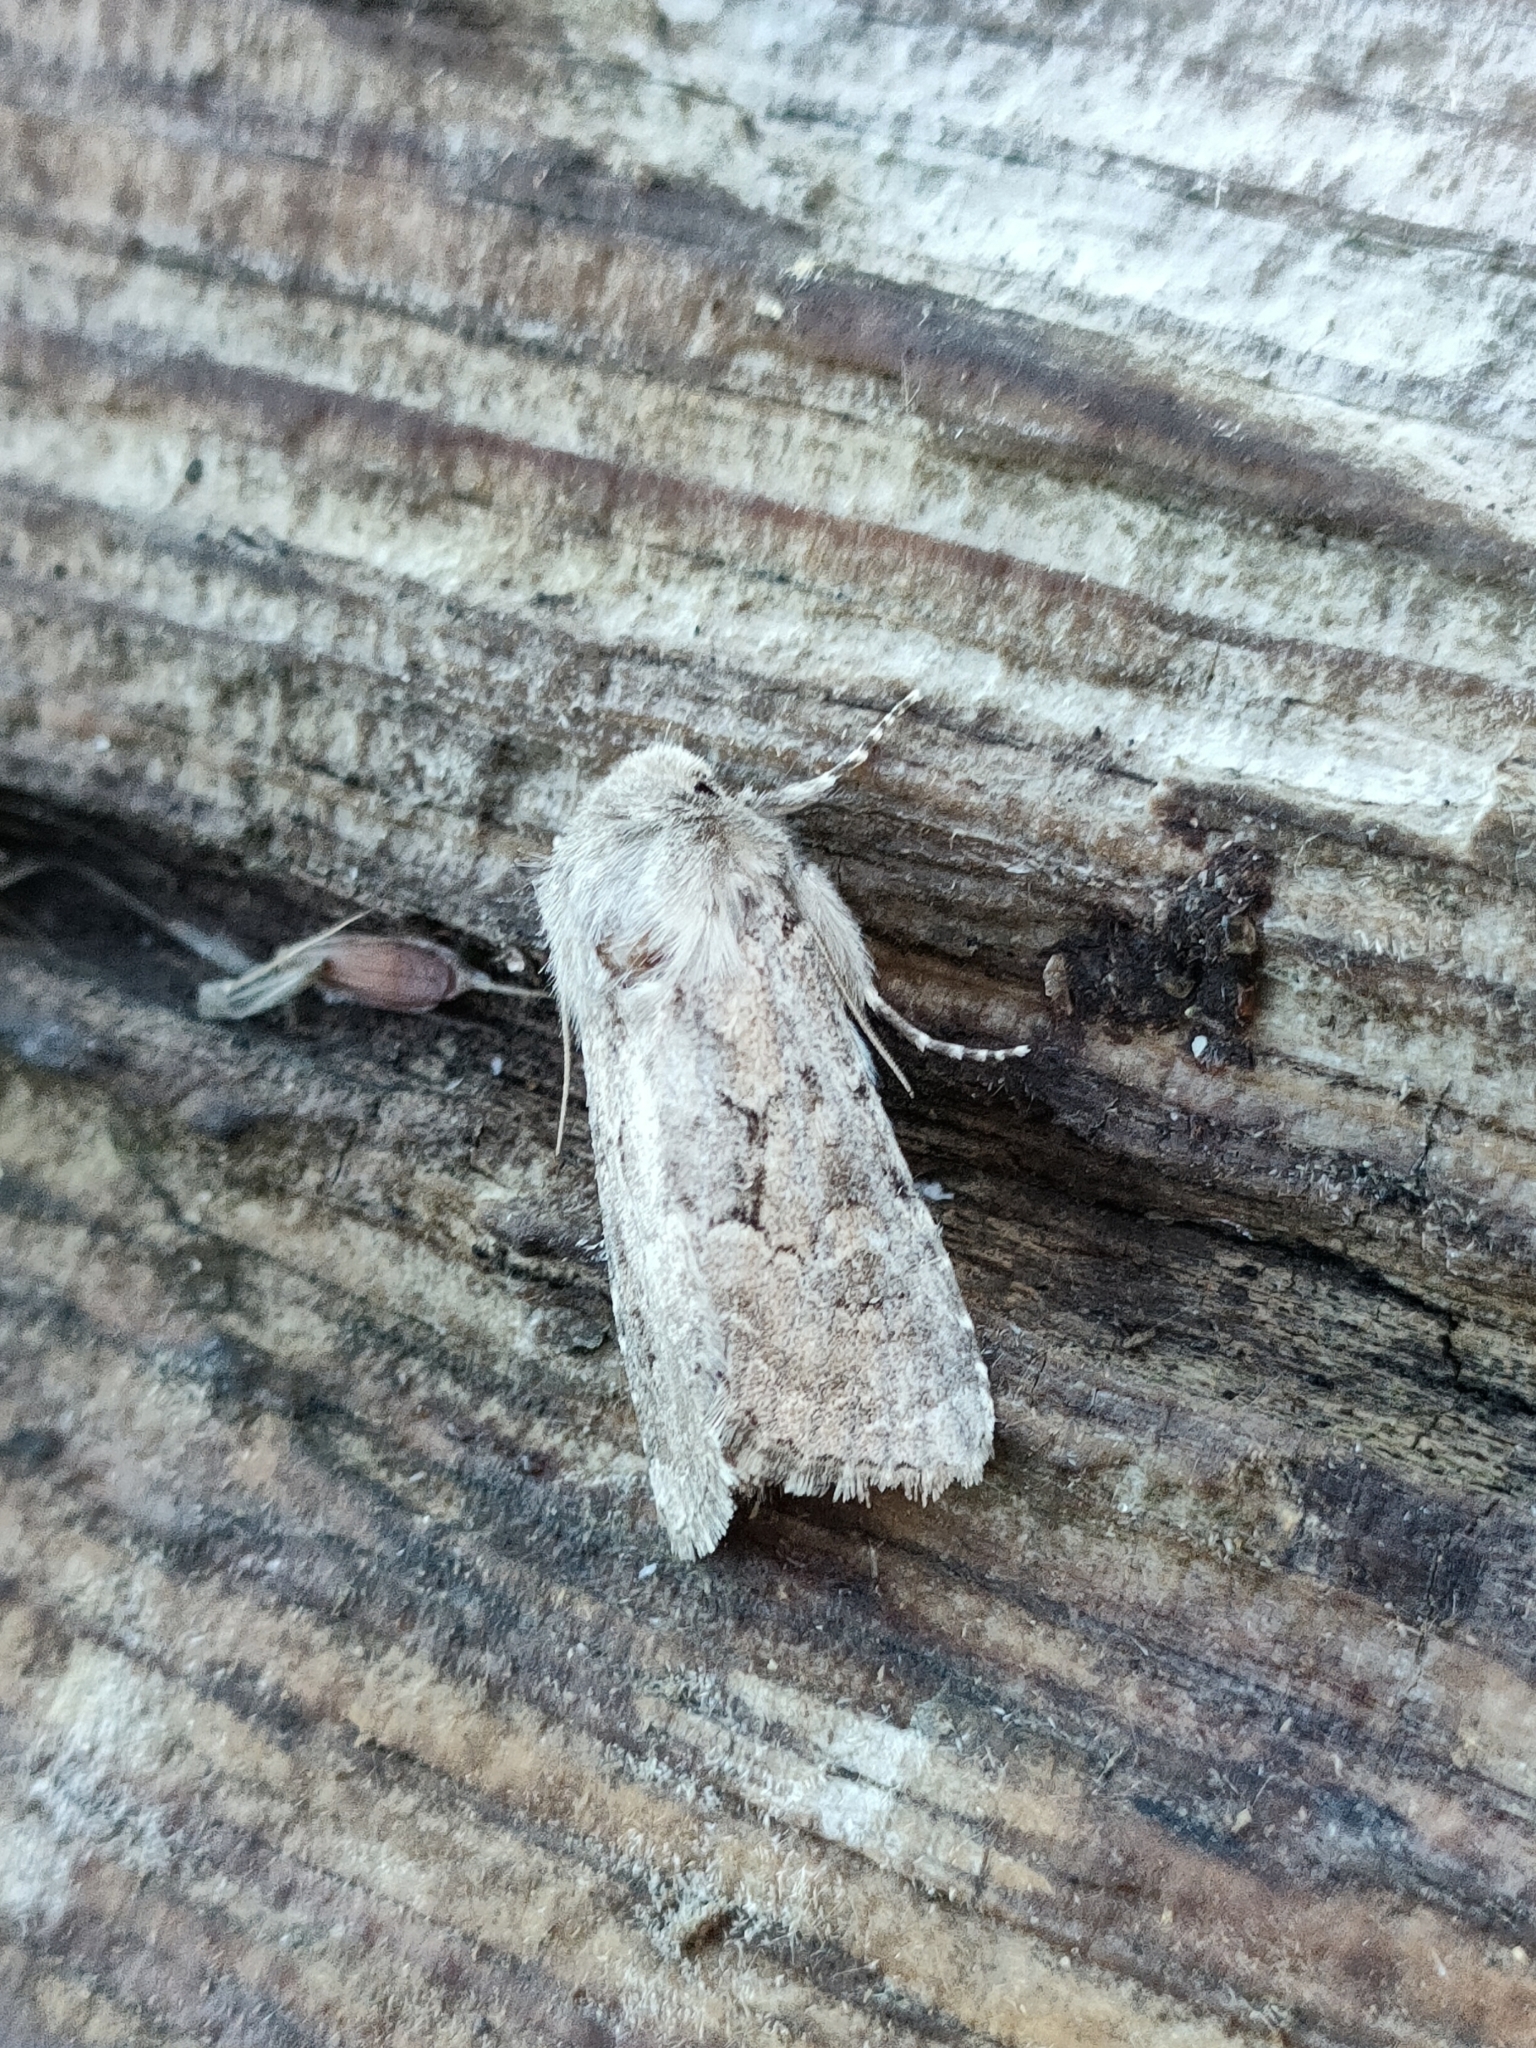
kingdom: Animalia
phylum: Arthropoda
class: Insecta
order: Lepidoptera
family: Noctuidae
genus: Luperina
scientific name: Luperina testacea
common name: Flounced rustic
